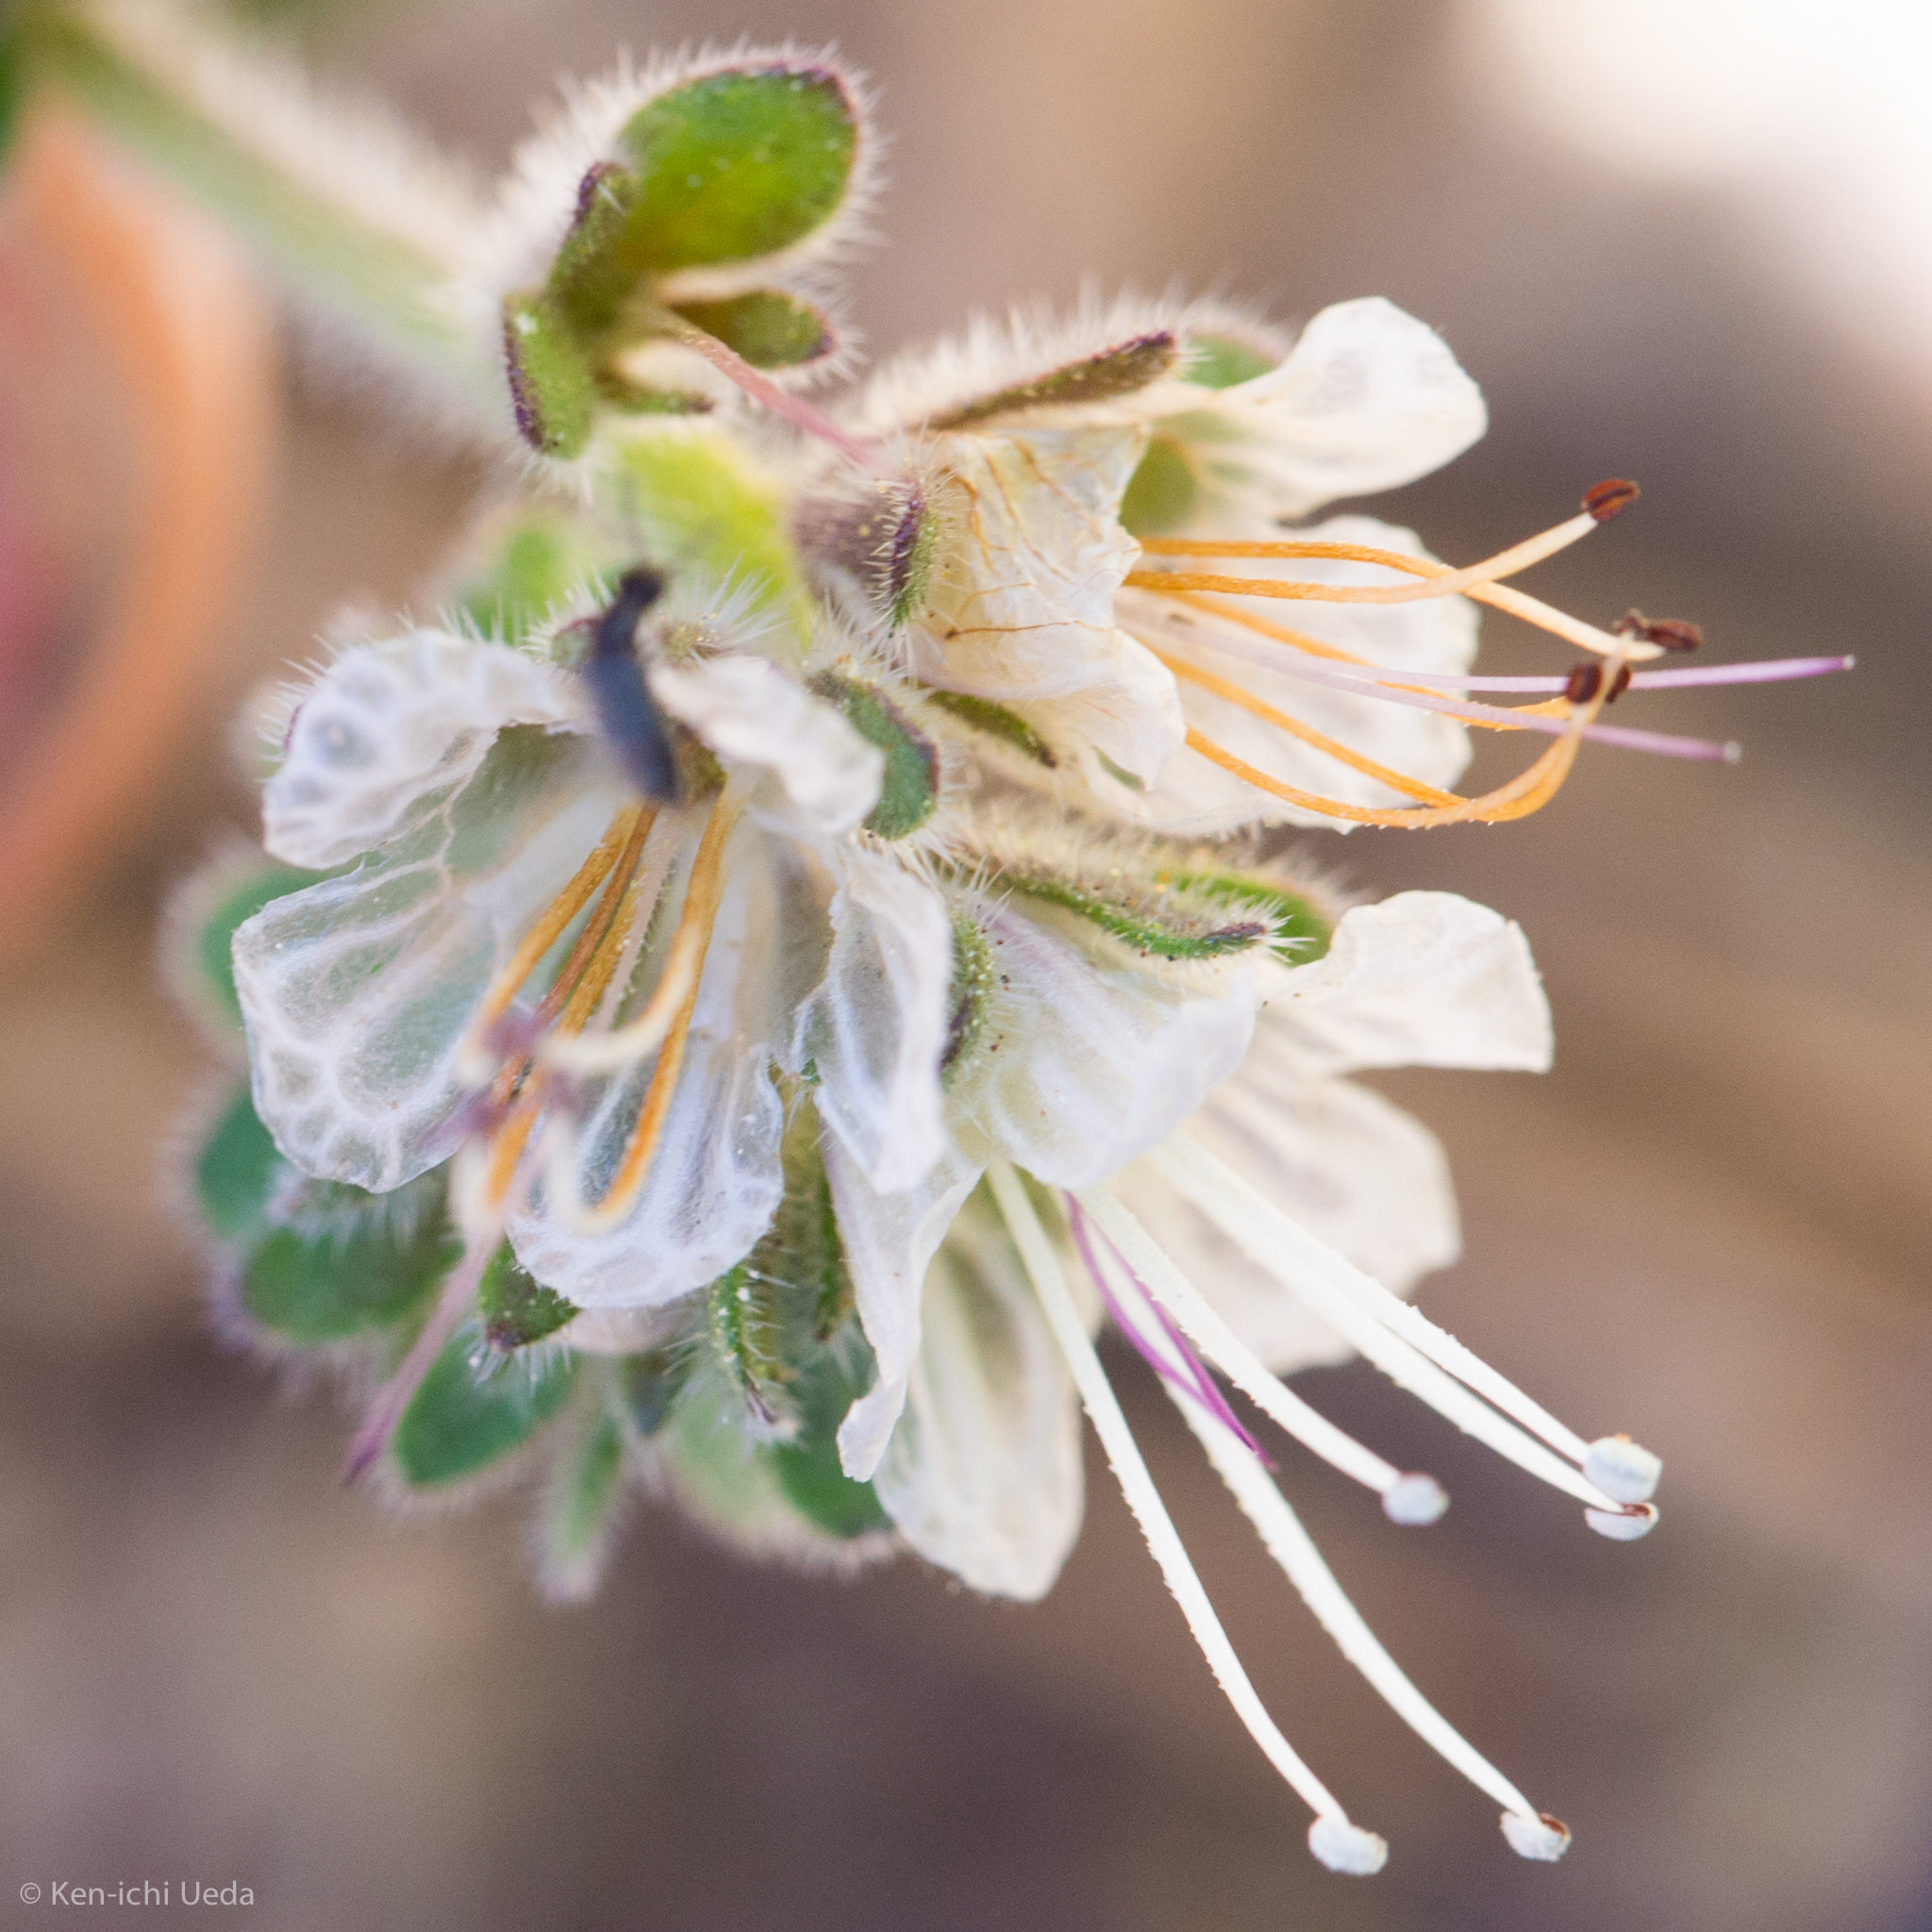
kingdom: Plantae
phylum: Tracheophyta
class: Magnoliopsida
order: Boraginales
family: Hydrophyllaceae
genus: Phacelia
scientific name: Phacelia grisea
